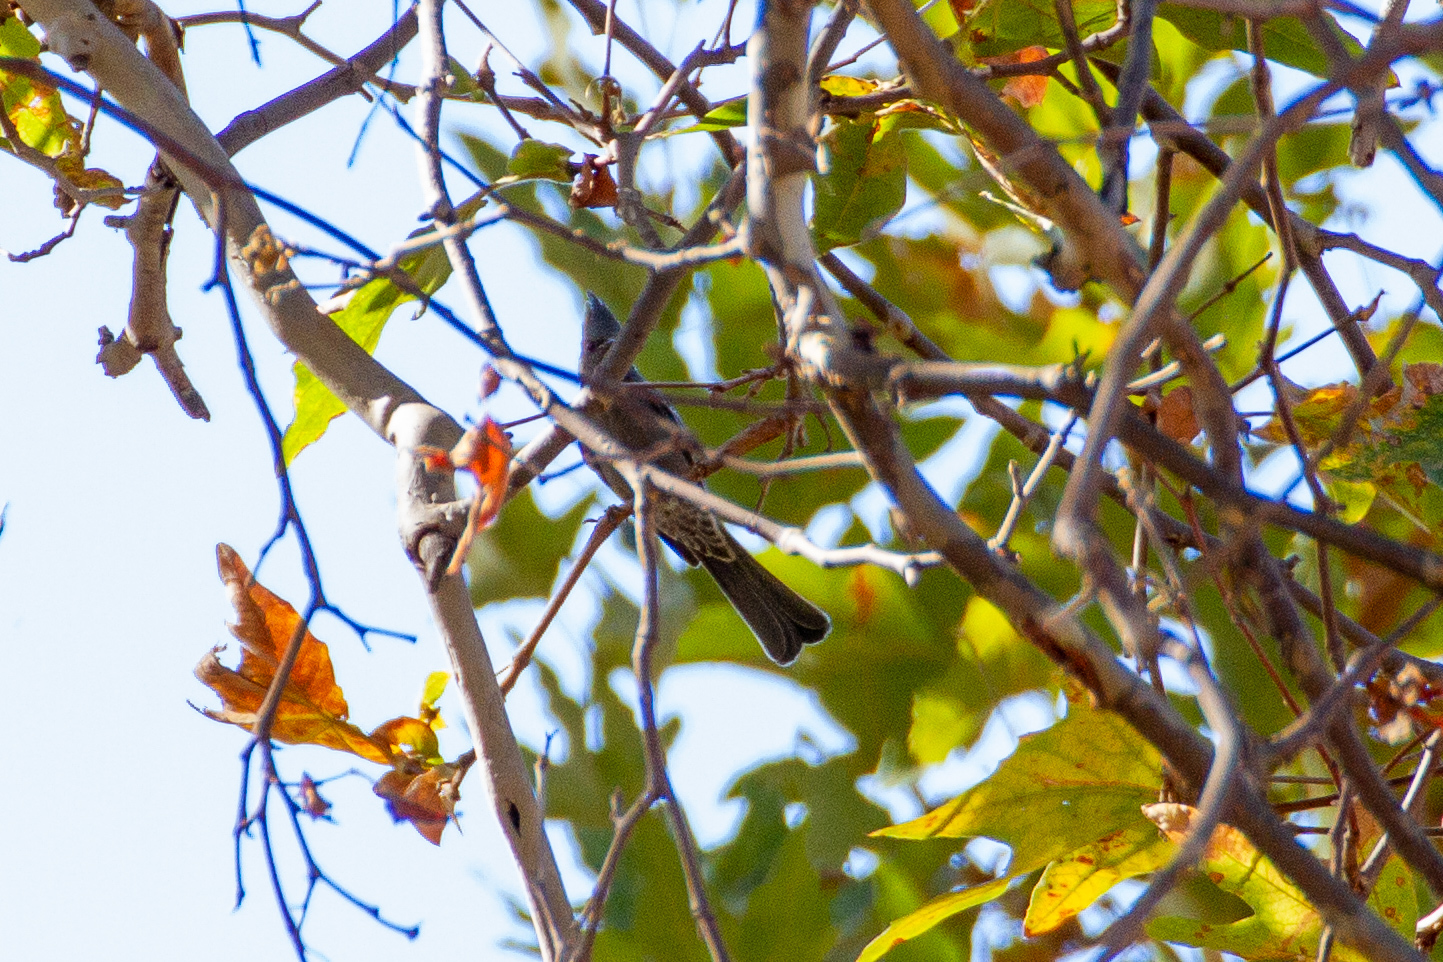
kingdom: Animalia
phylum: Chordata
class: Aves
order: Passeriformes
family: Ptilogonatidae
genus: Phainopepla
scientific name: Phainopepla nitens
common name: Phainopepla
